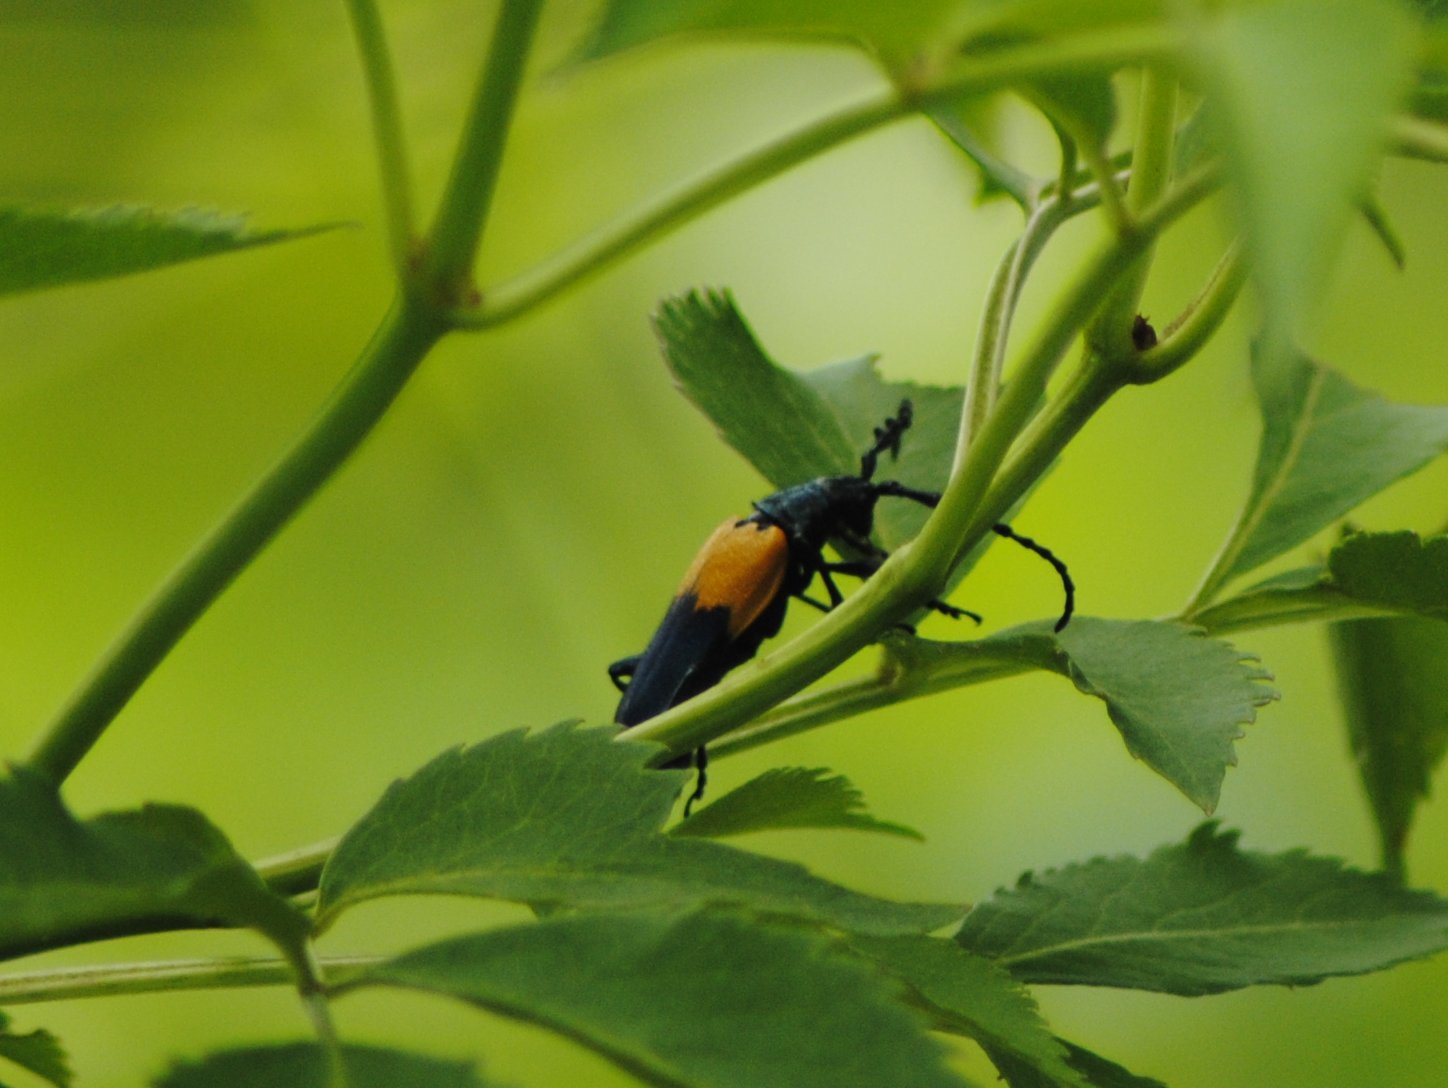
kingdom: Animalia
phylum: Arthropoda
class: Insecta
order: Coleoptera
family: Cerambycidae
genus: Desmocerus
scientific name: Desmocerus palliatus
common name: Eastern elderberry borer
